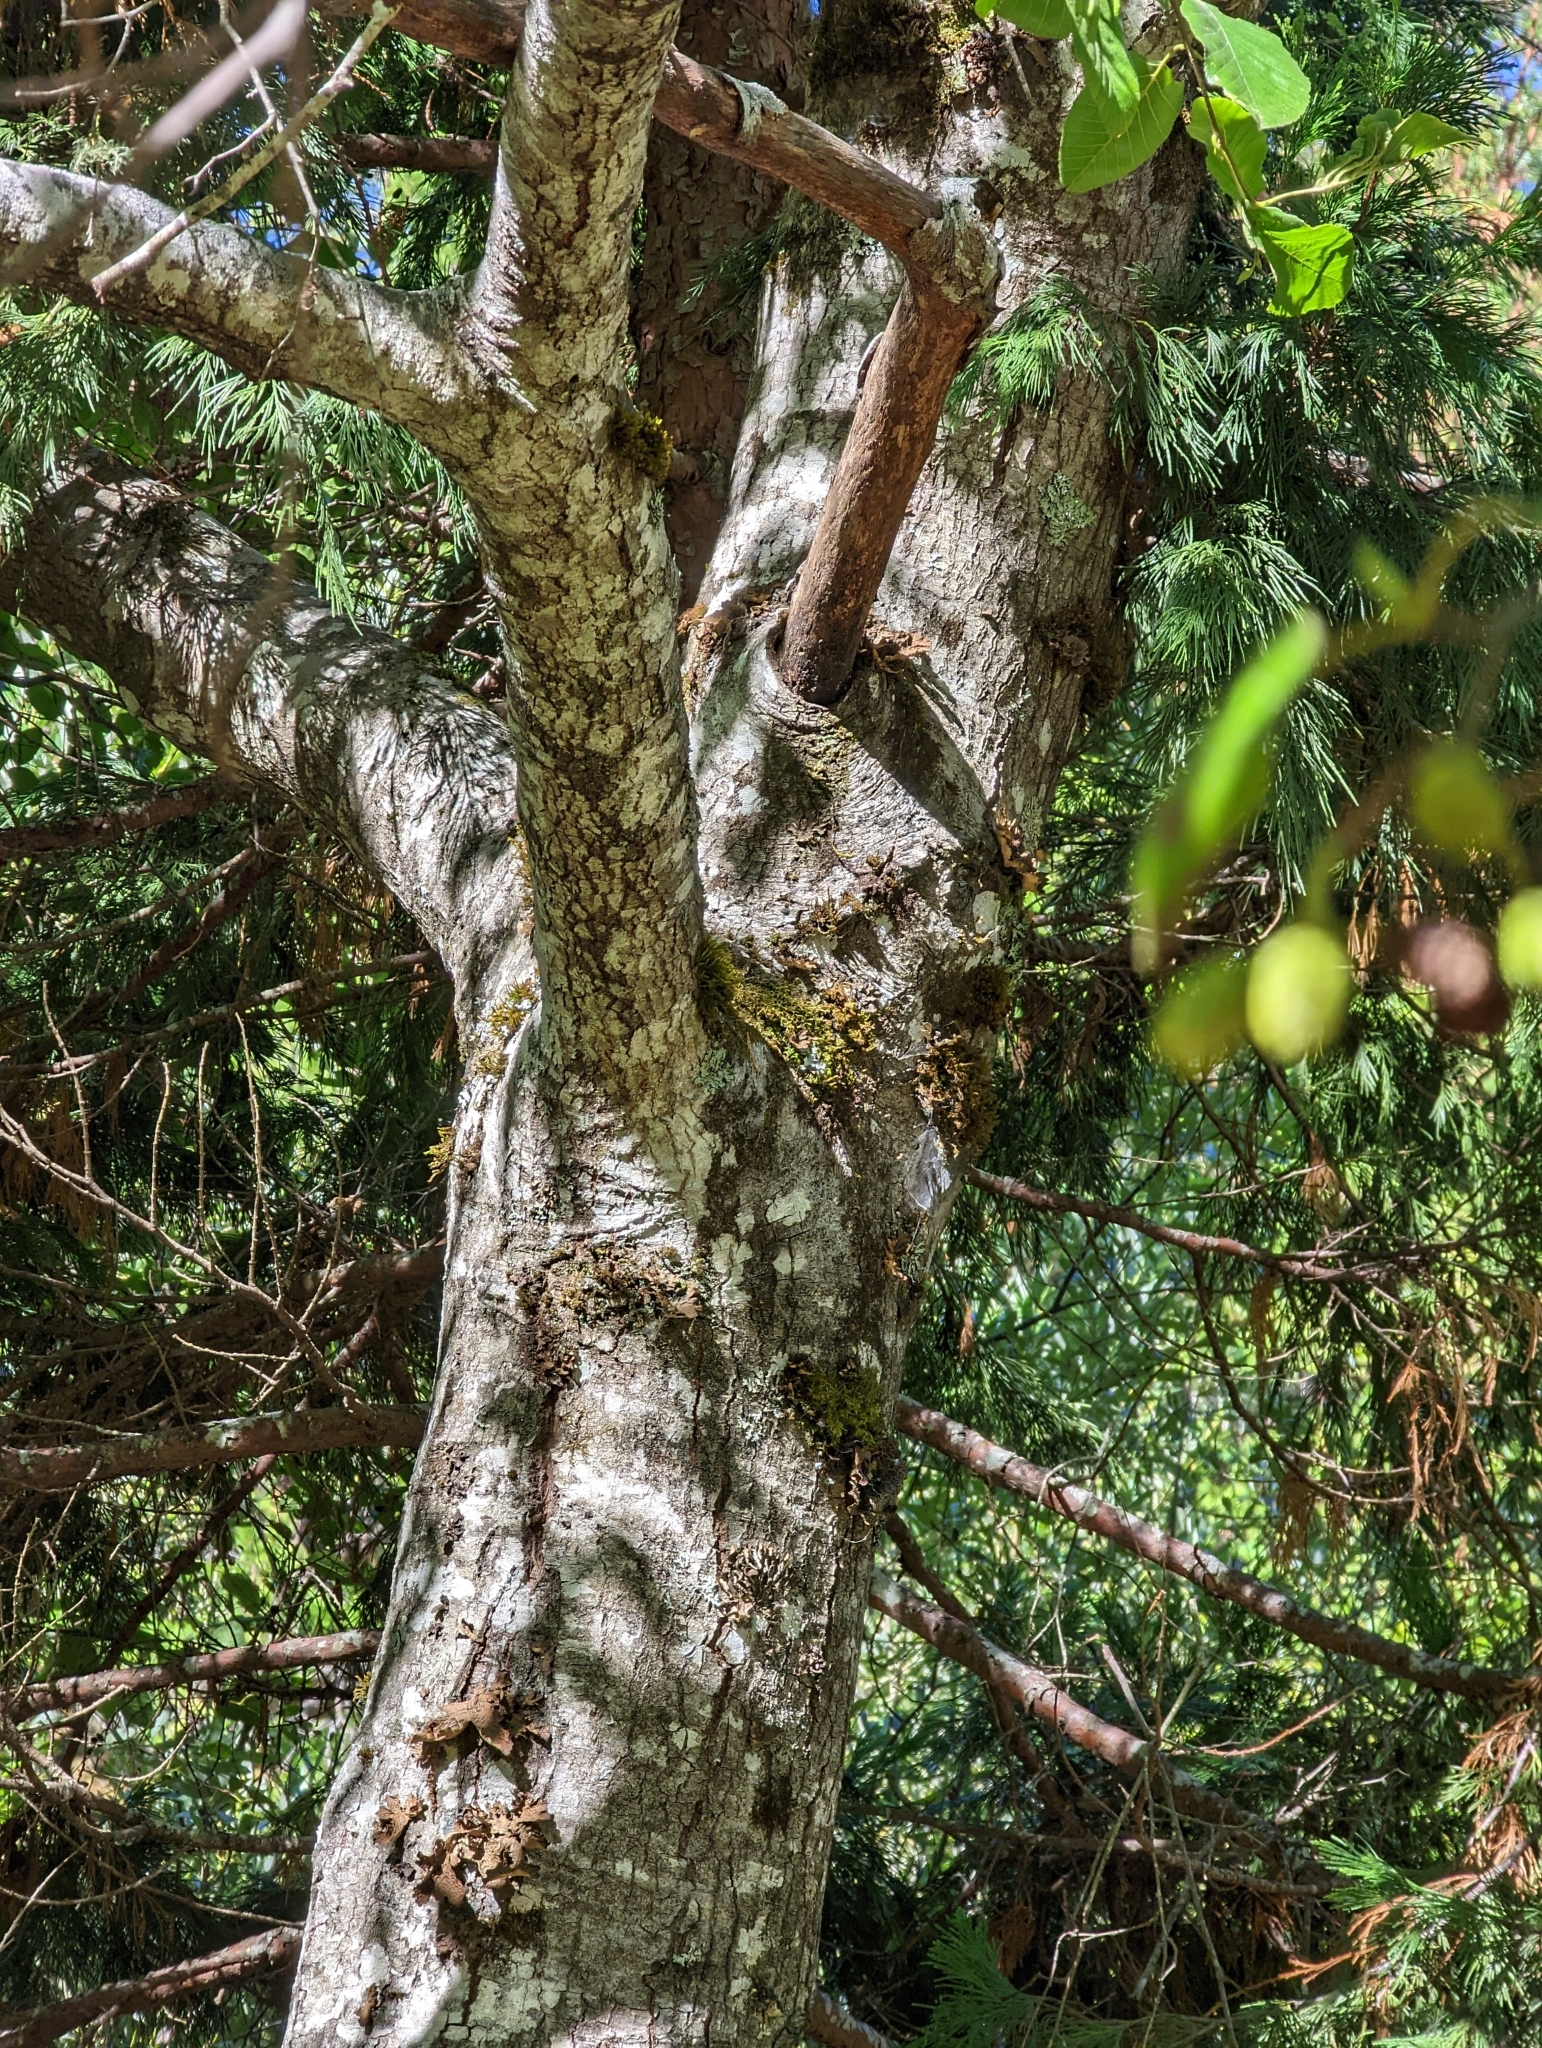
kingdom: Plantae
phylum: Tracheophyta
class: Magnoliopsida
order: Fagales
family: Betulaceae
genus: Alnus
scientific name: Alnus rhombifolia
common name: California alder
